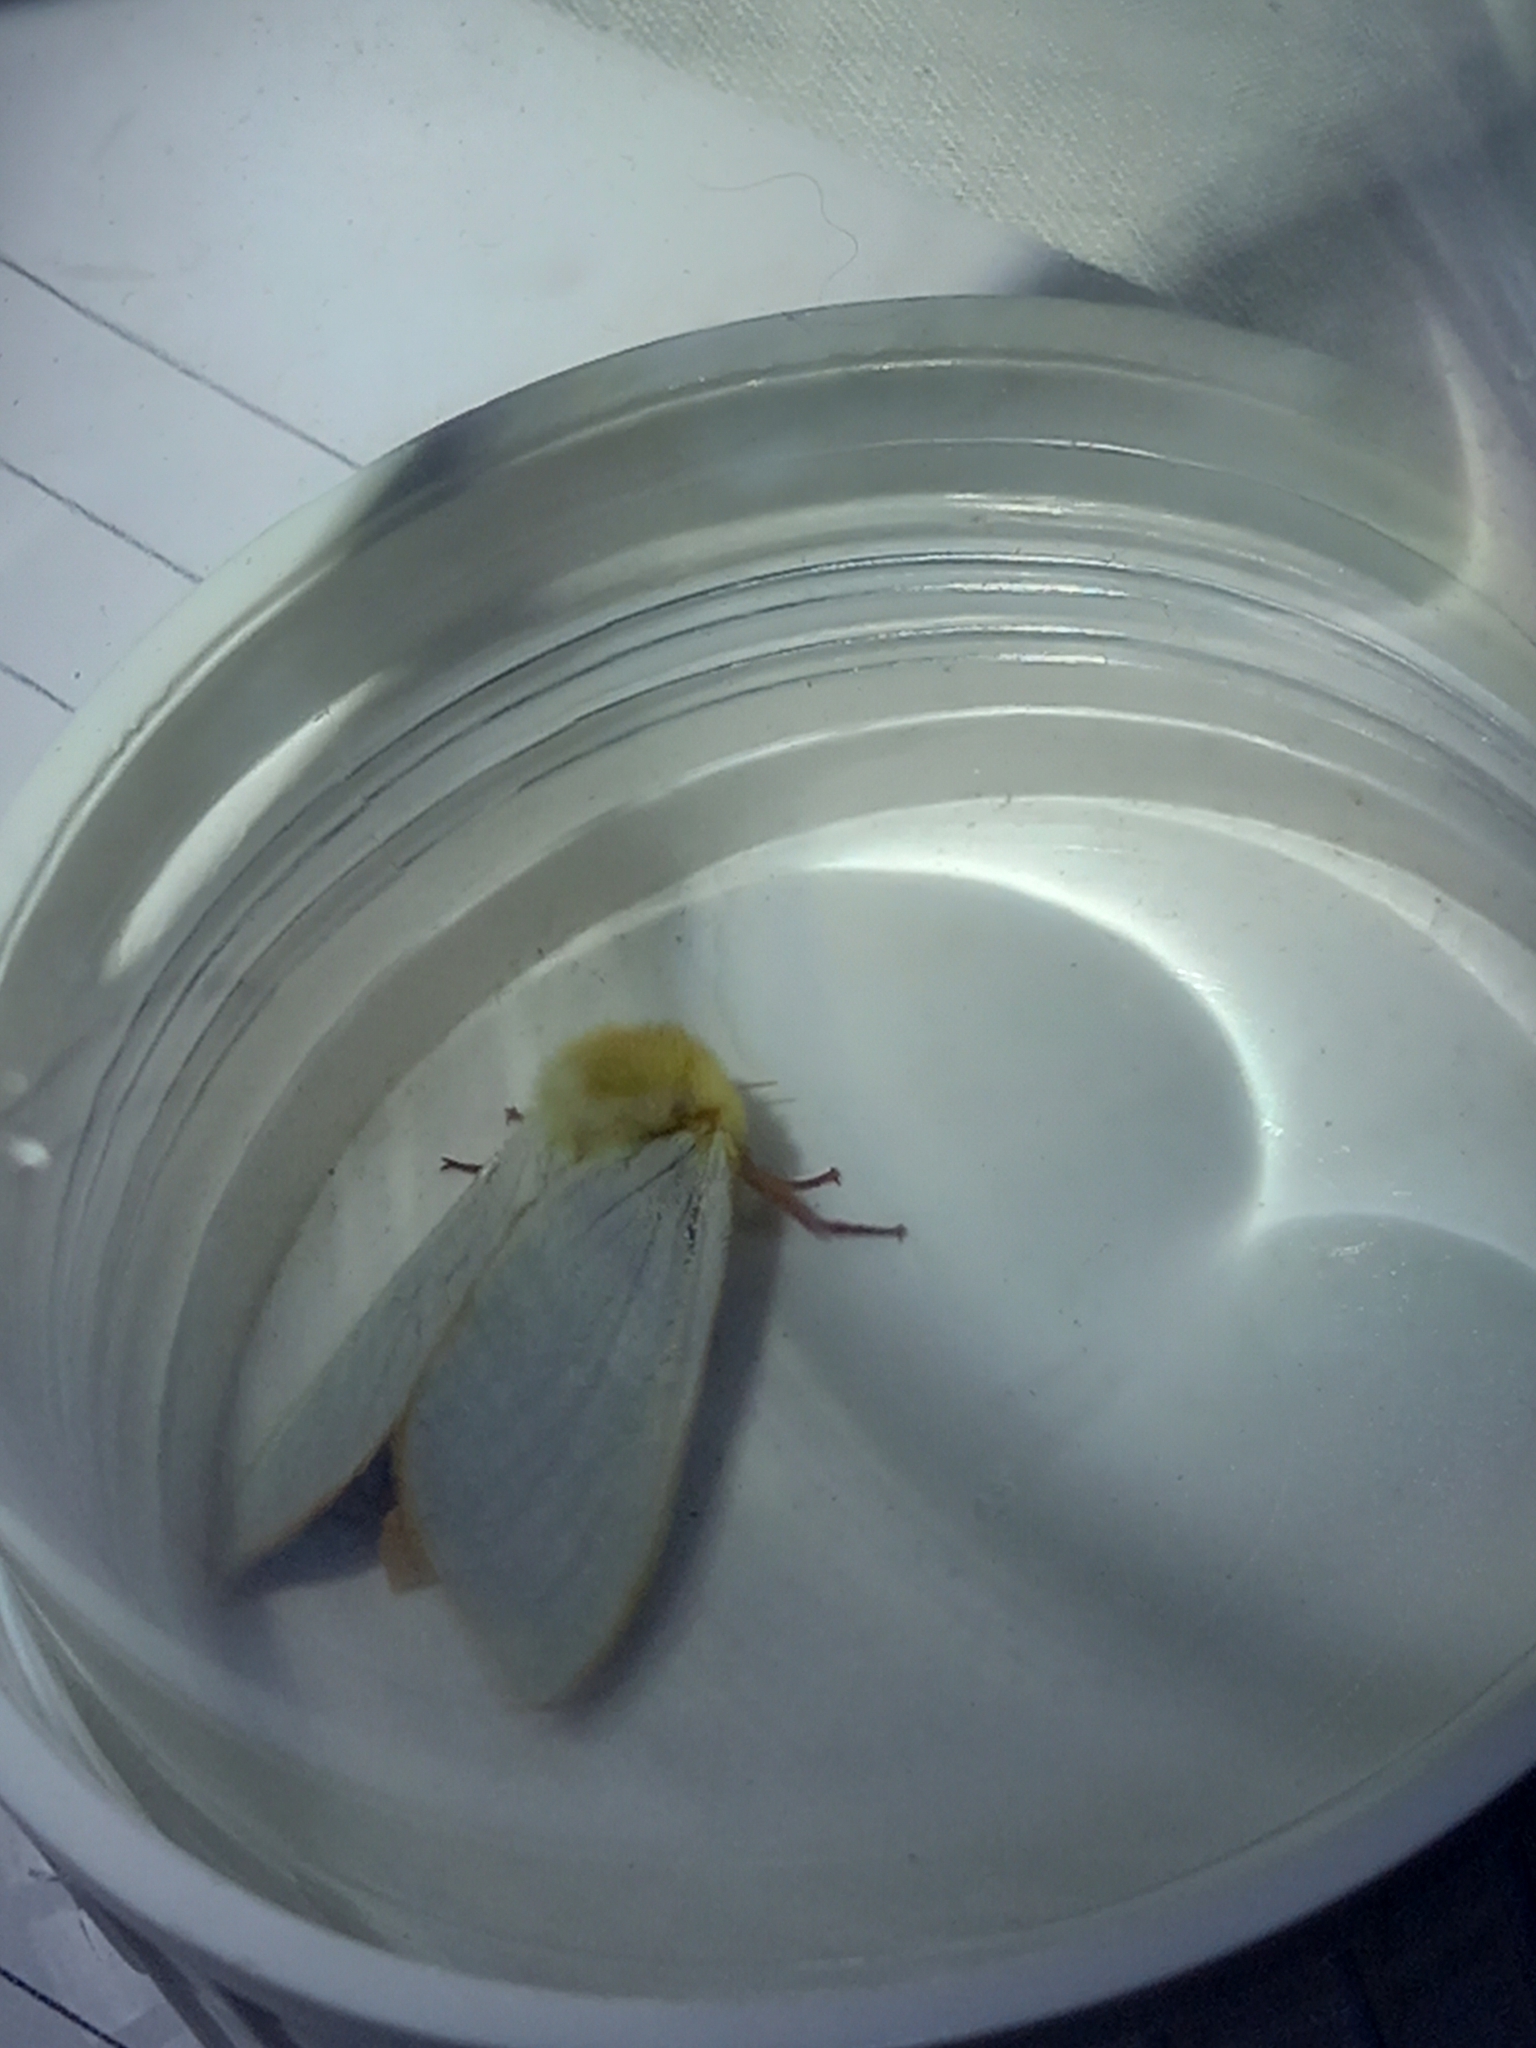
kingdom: Animalia
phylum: Arthropoda
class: Insecta
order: Lepidoptera
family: Hepialidae
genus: Hepialus
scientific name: Hepialus humuli
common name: Ghost moth
